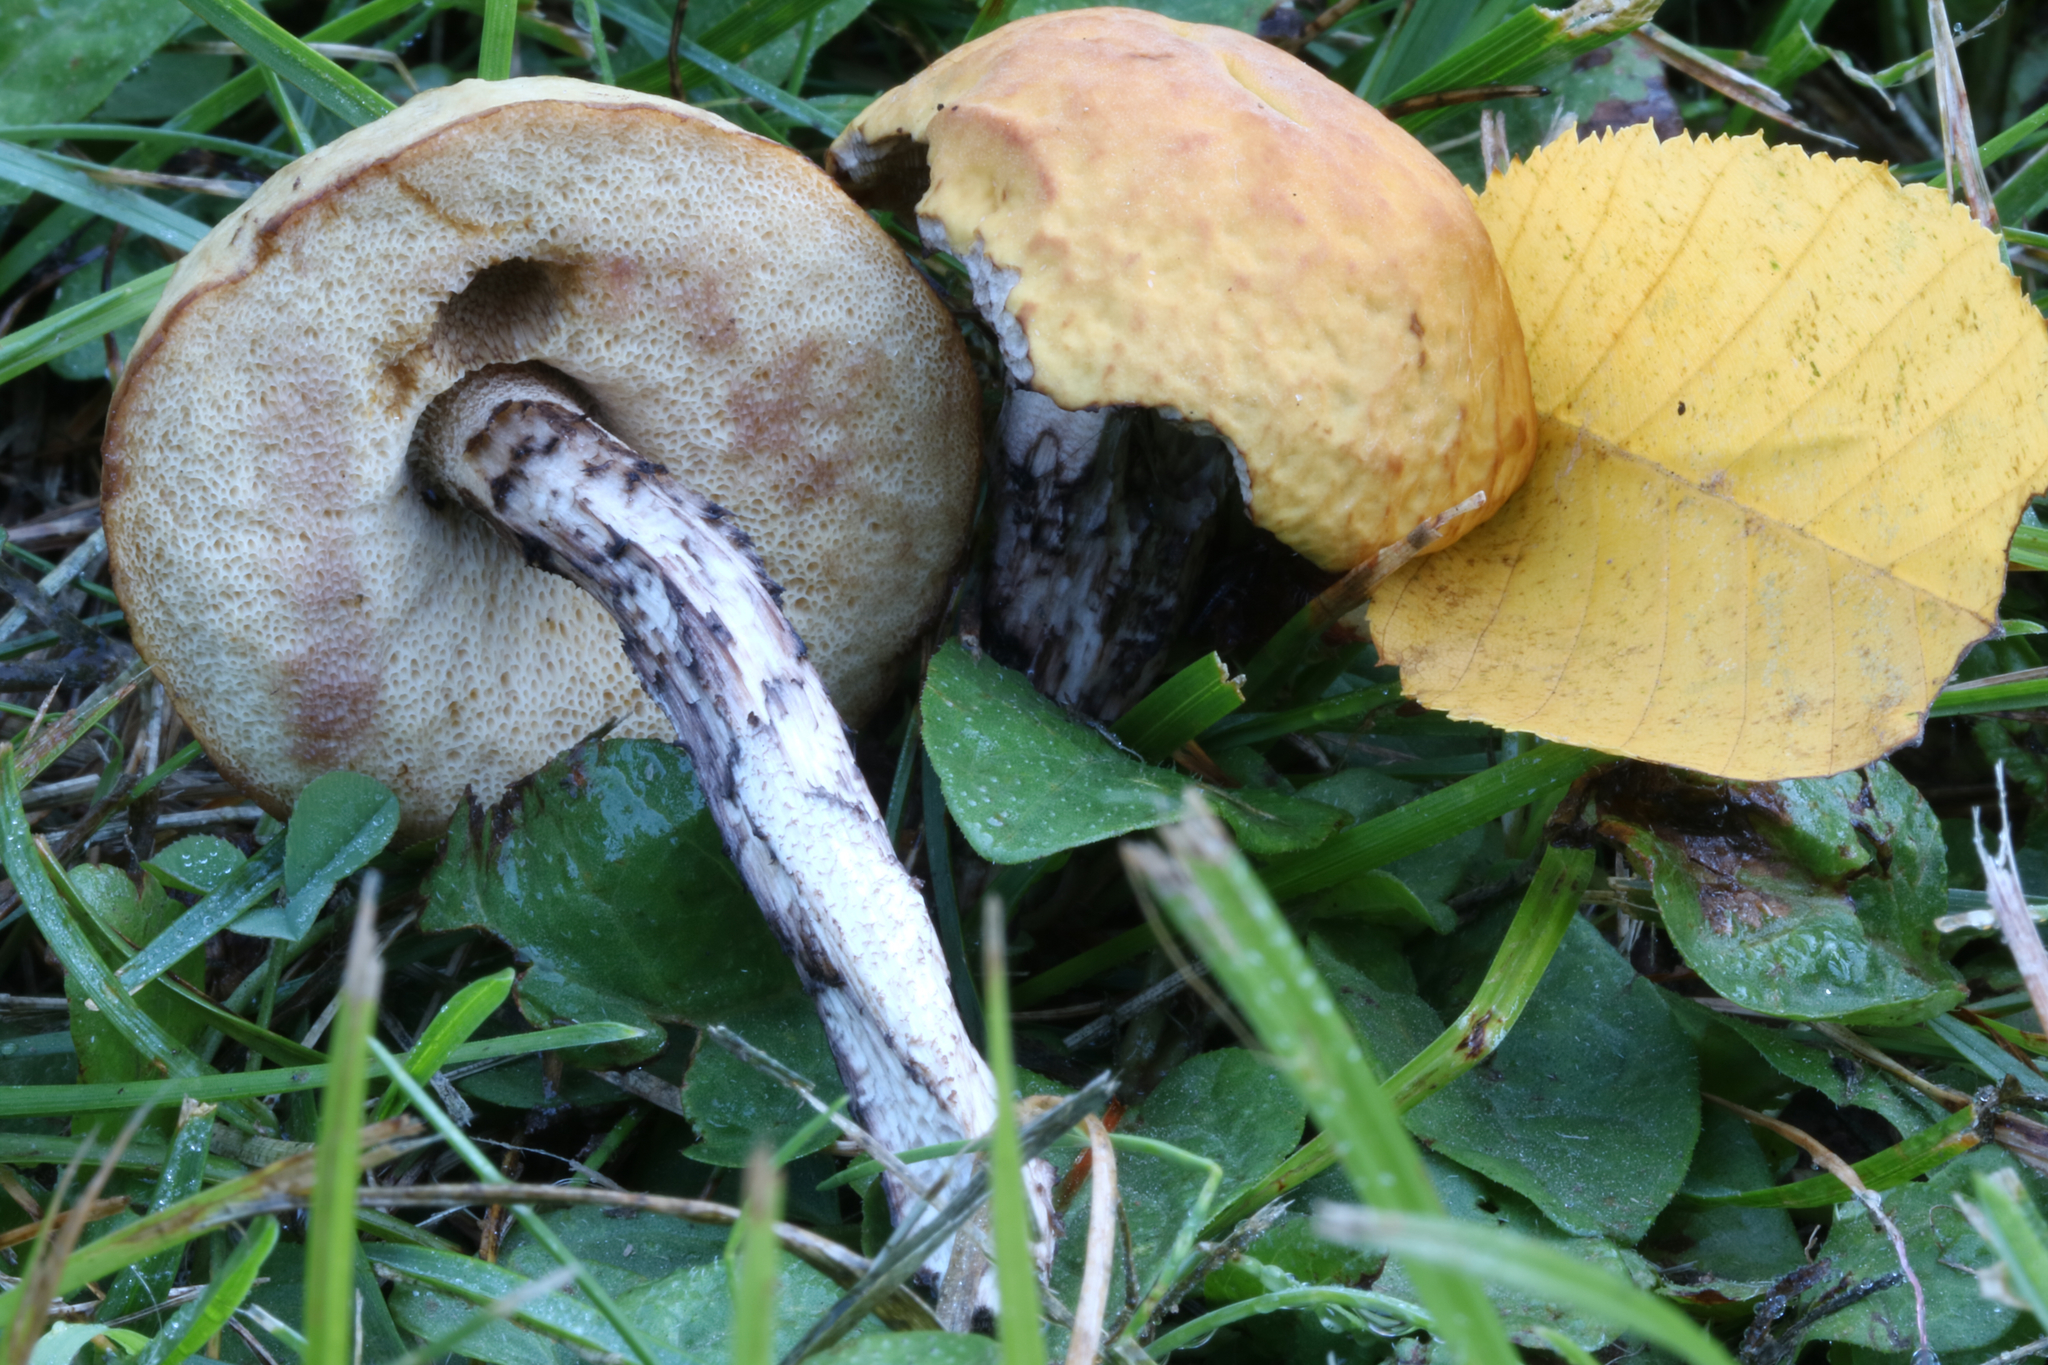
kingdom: Fungi
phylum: Basidiomycota
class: Agaricomycetes
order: Boletales
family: Boletaceae
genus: Leccinellum
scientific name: Leccinellum luteum
